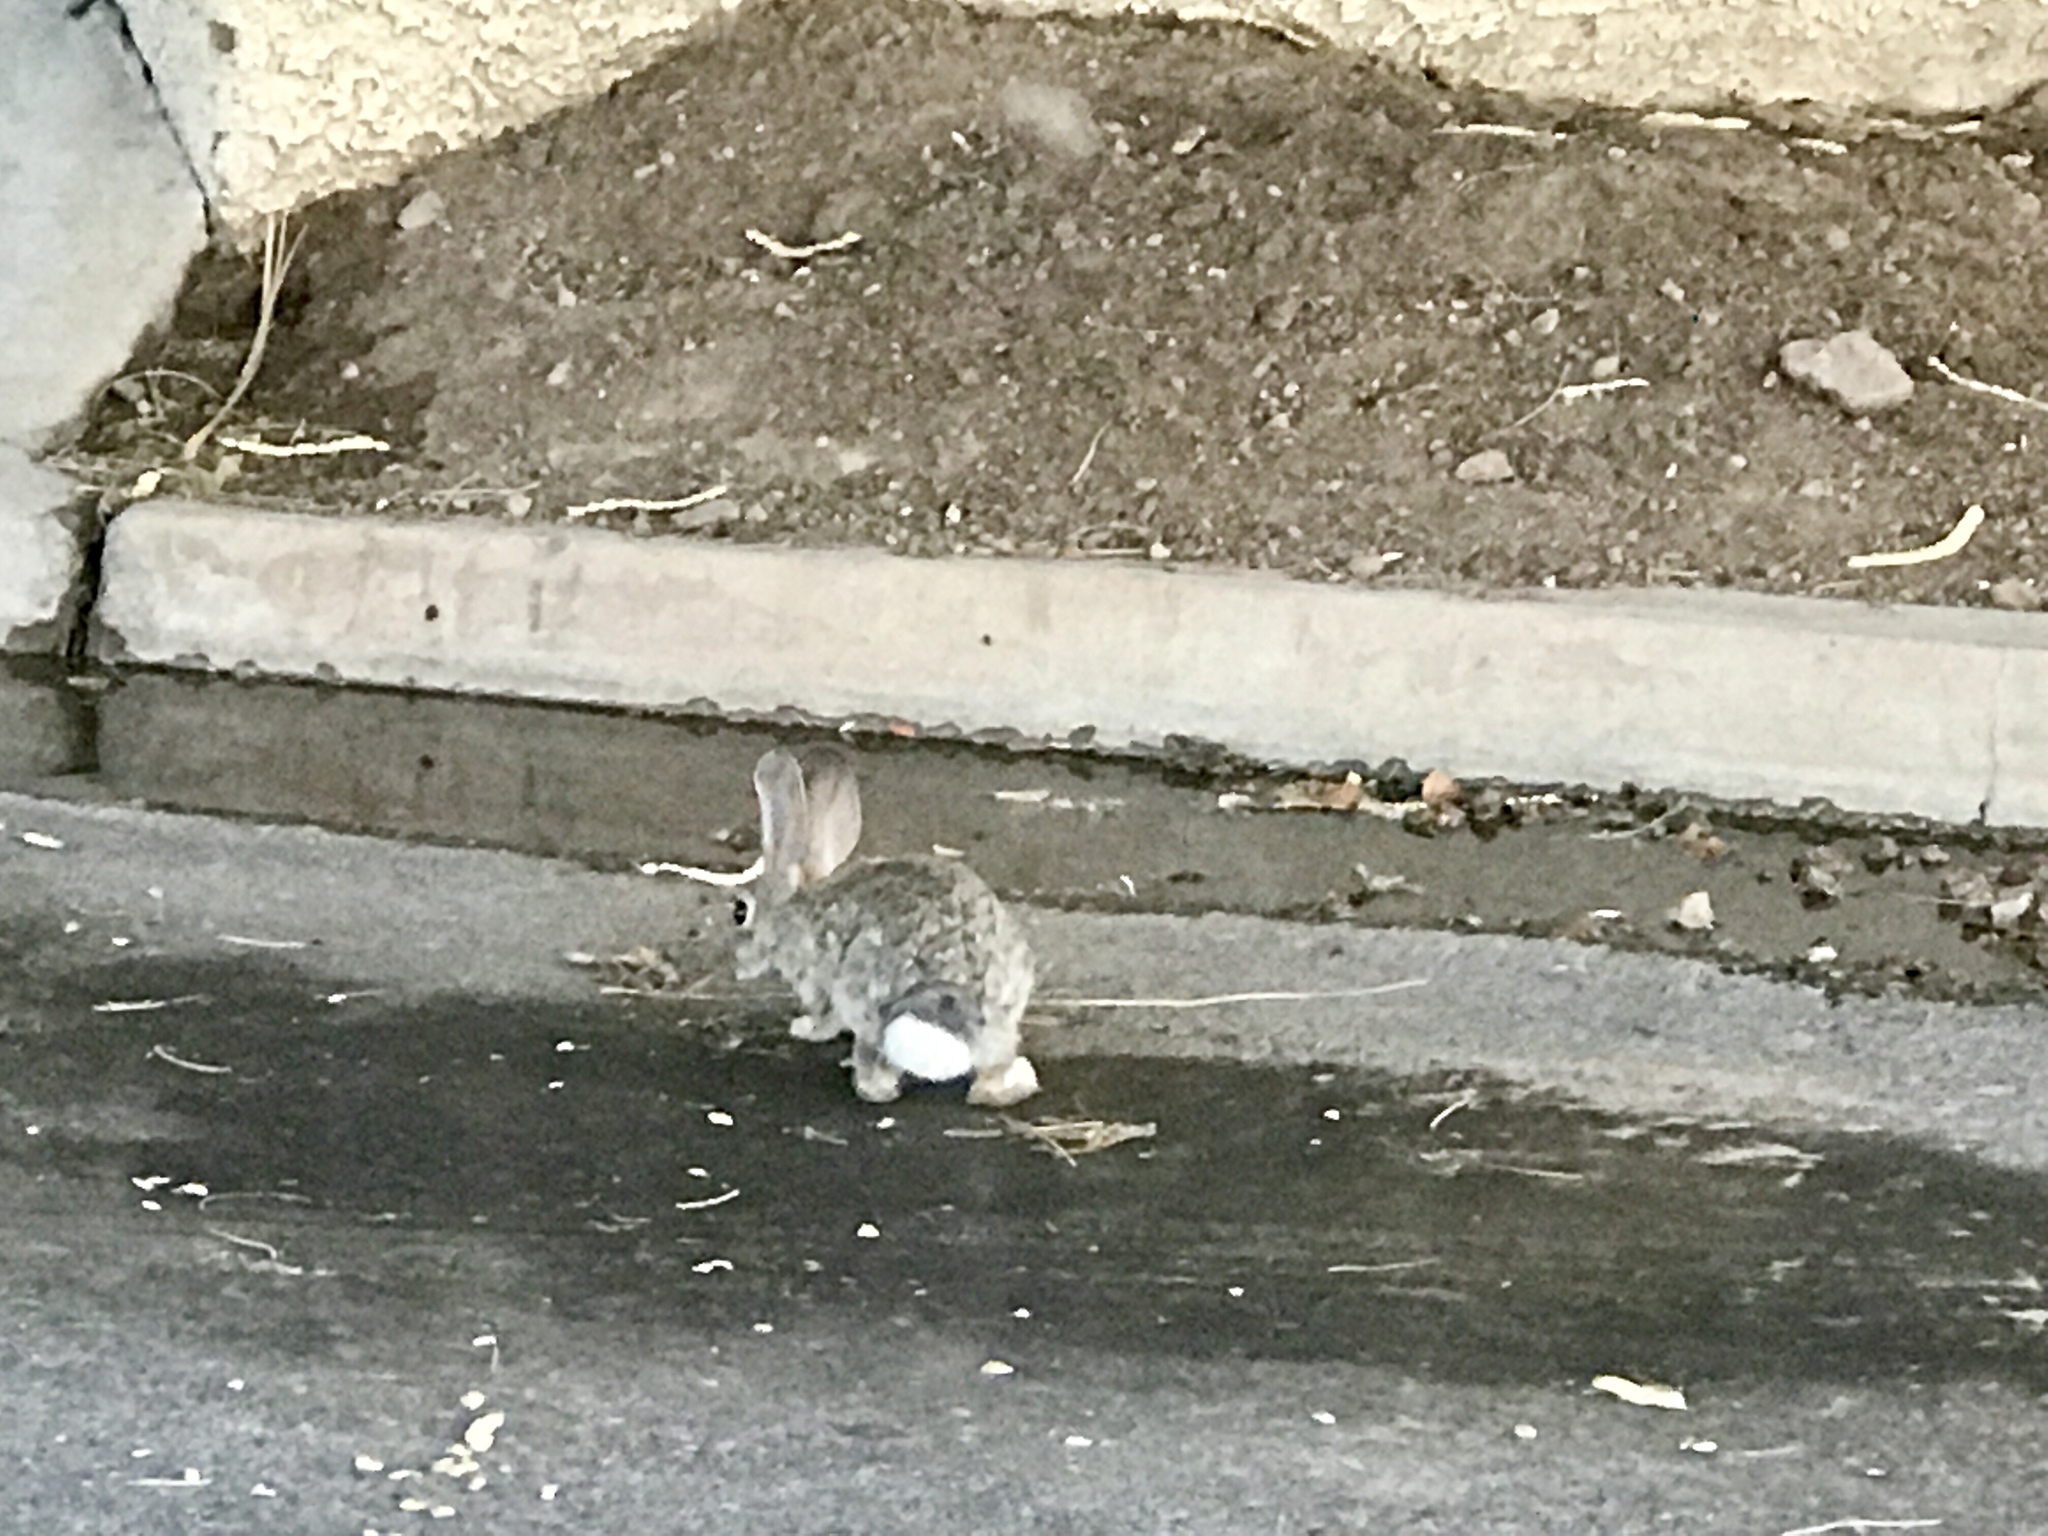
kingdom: Animalia
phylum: Chordata
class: Mammalia
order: Lagomorpha
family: Leporidae
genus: Sylvilagus
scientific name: Sylvilagus audubonii
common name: Desert cottontail
